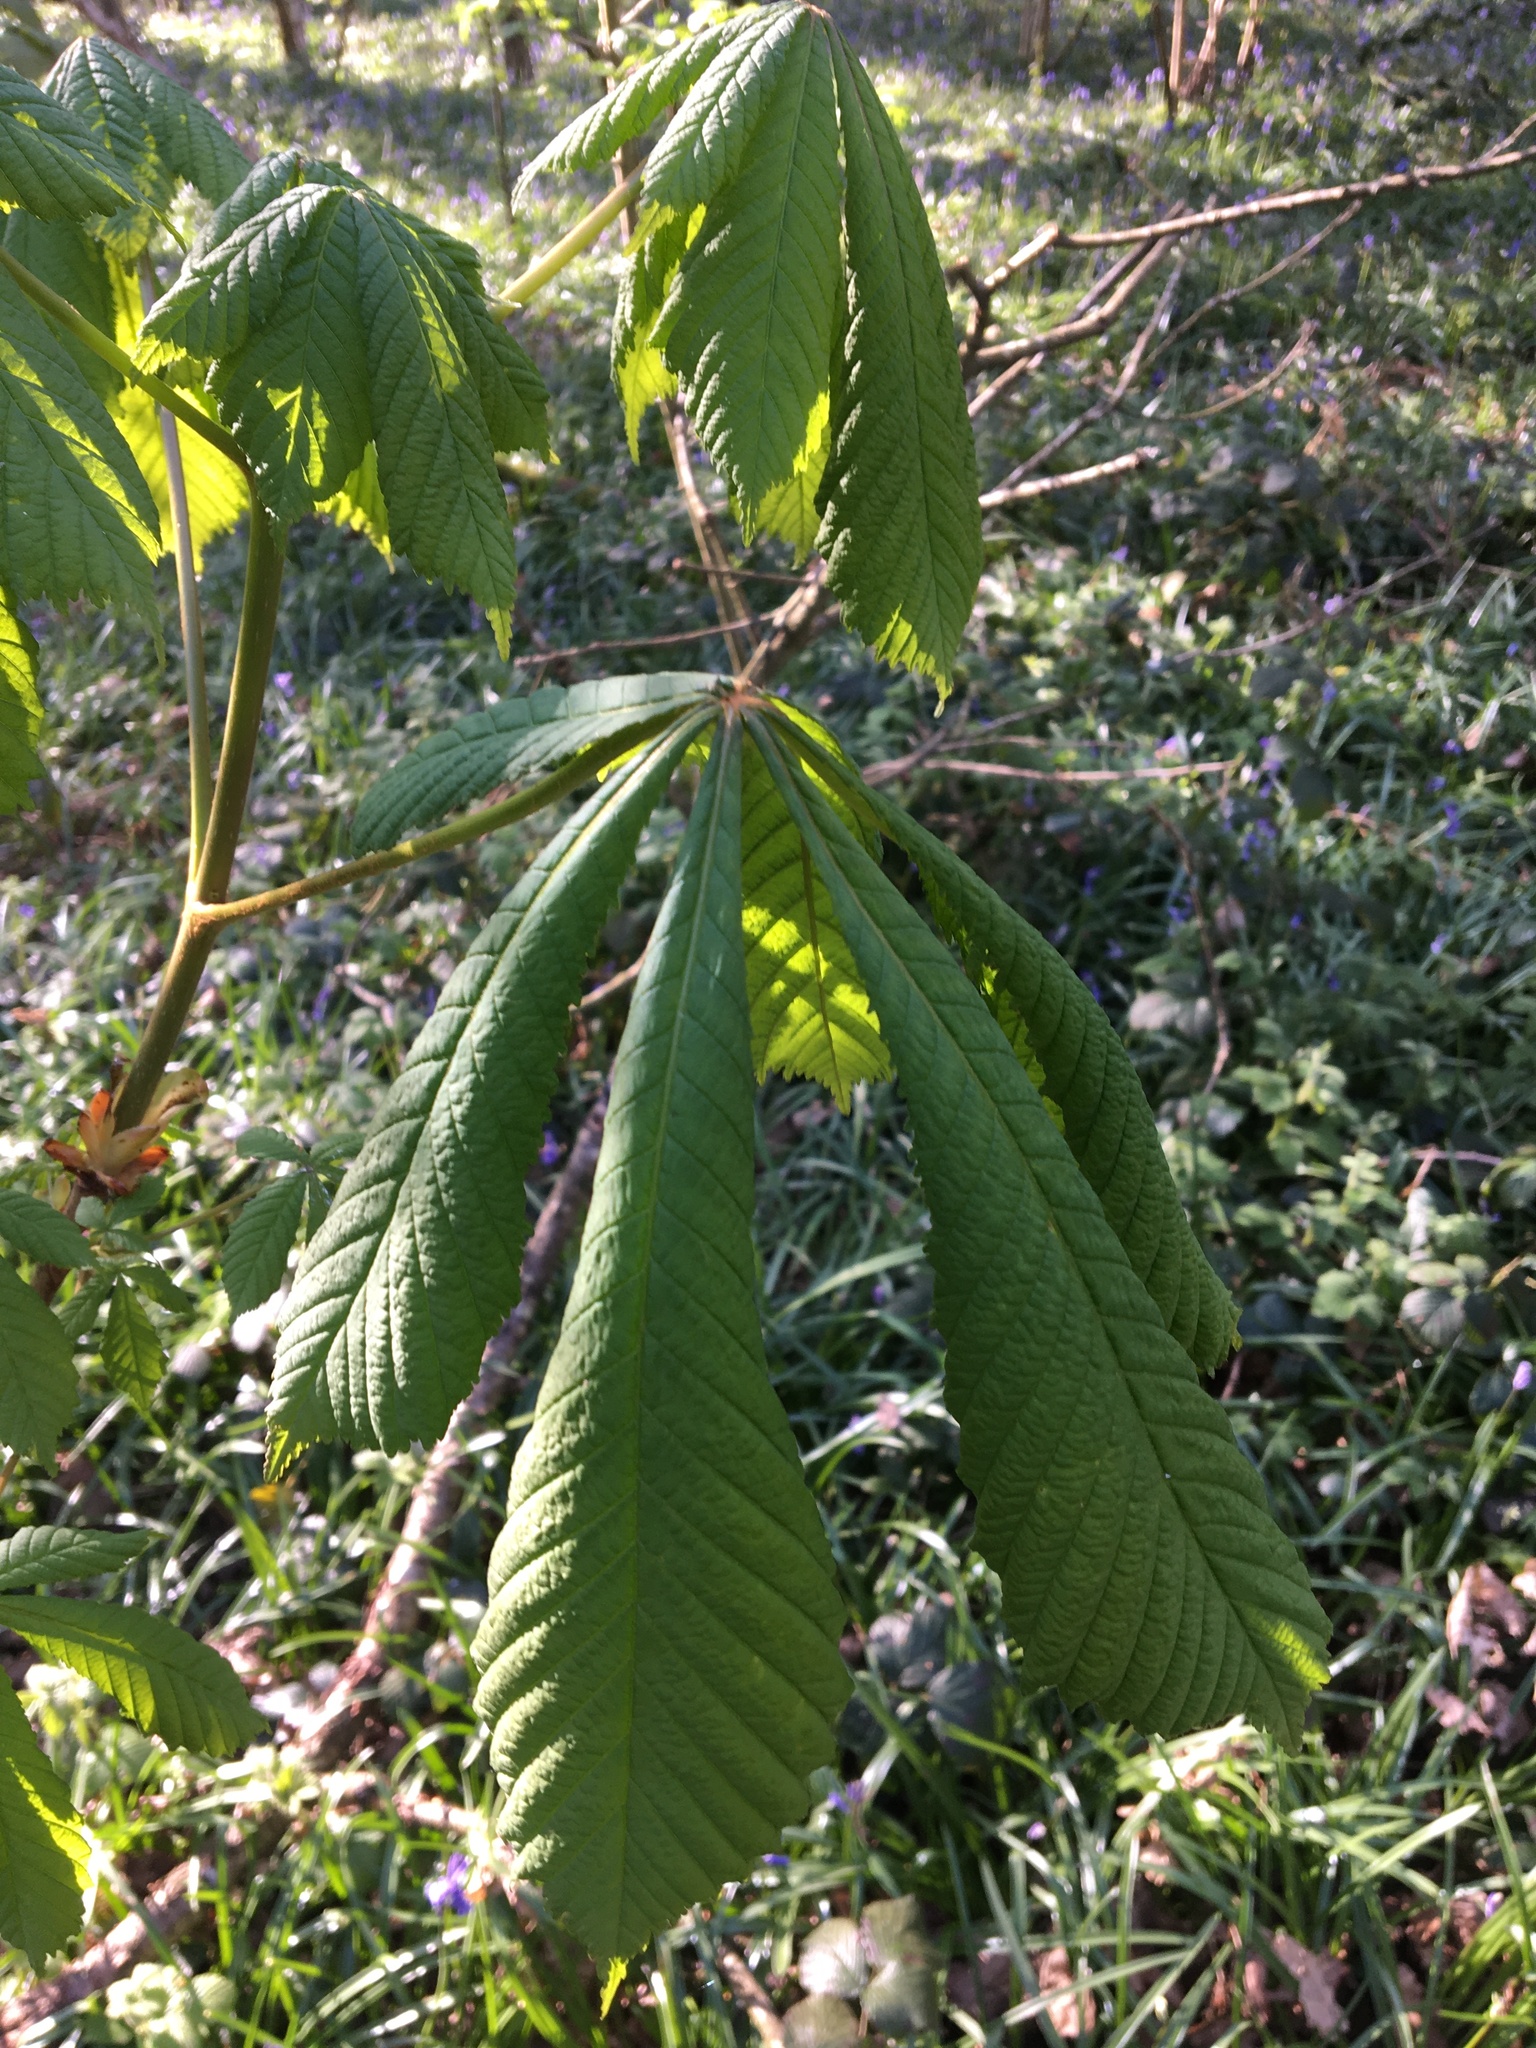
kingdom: Plantae
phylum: Tracheophyta
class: Magnoliopsida
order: Sapindales
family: Sapindaceae
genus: Aesculus
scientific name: Aesculus hippocastanum
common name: Horse-chestnut
